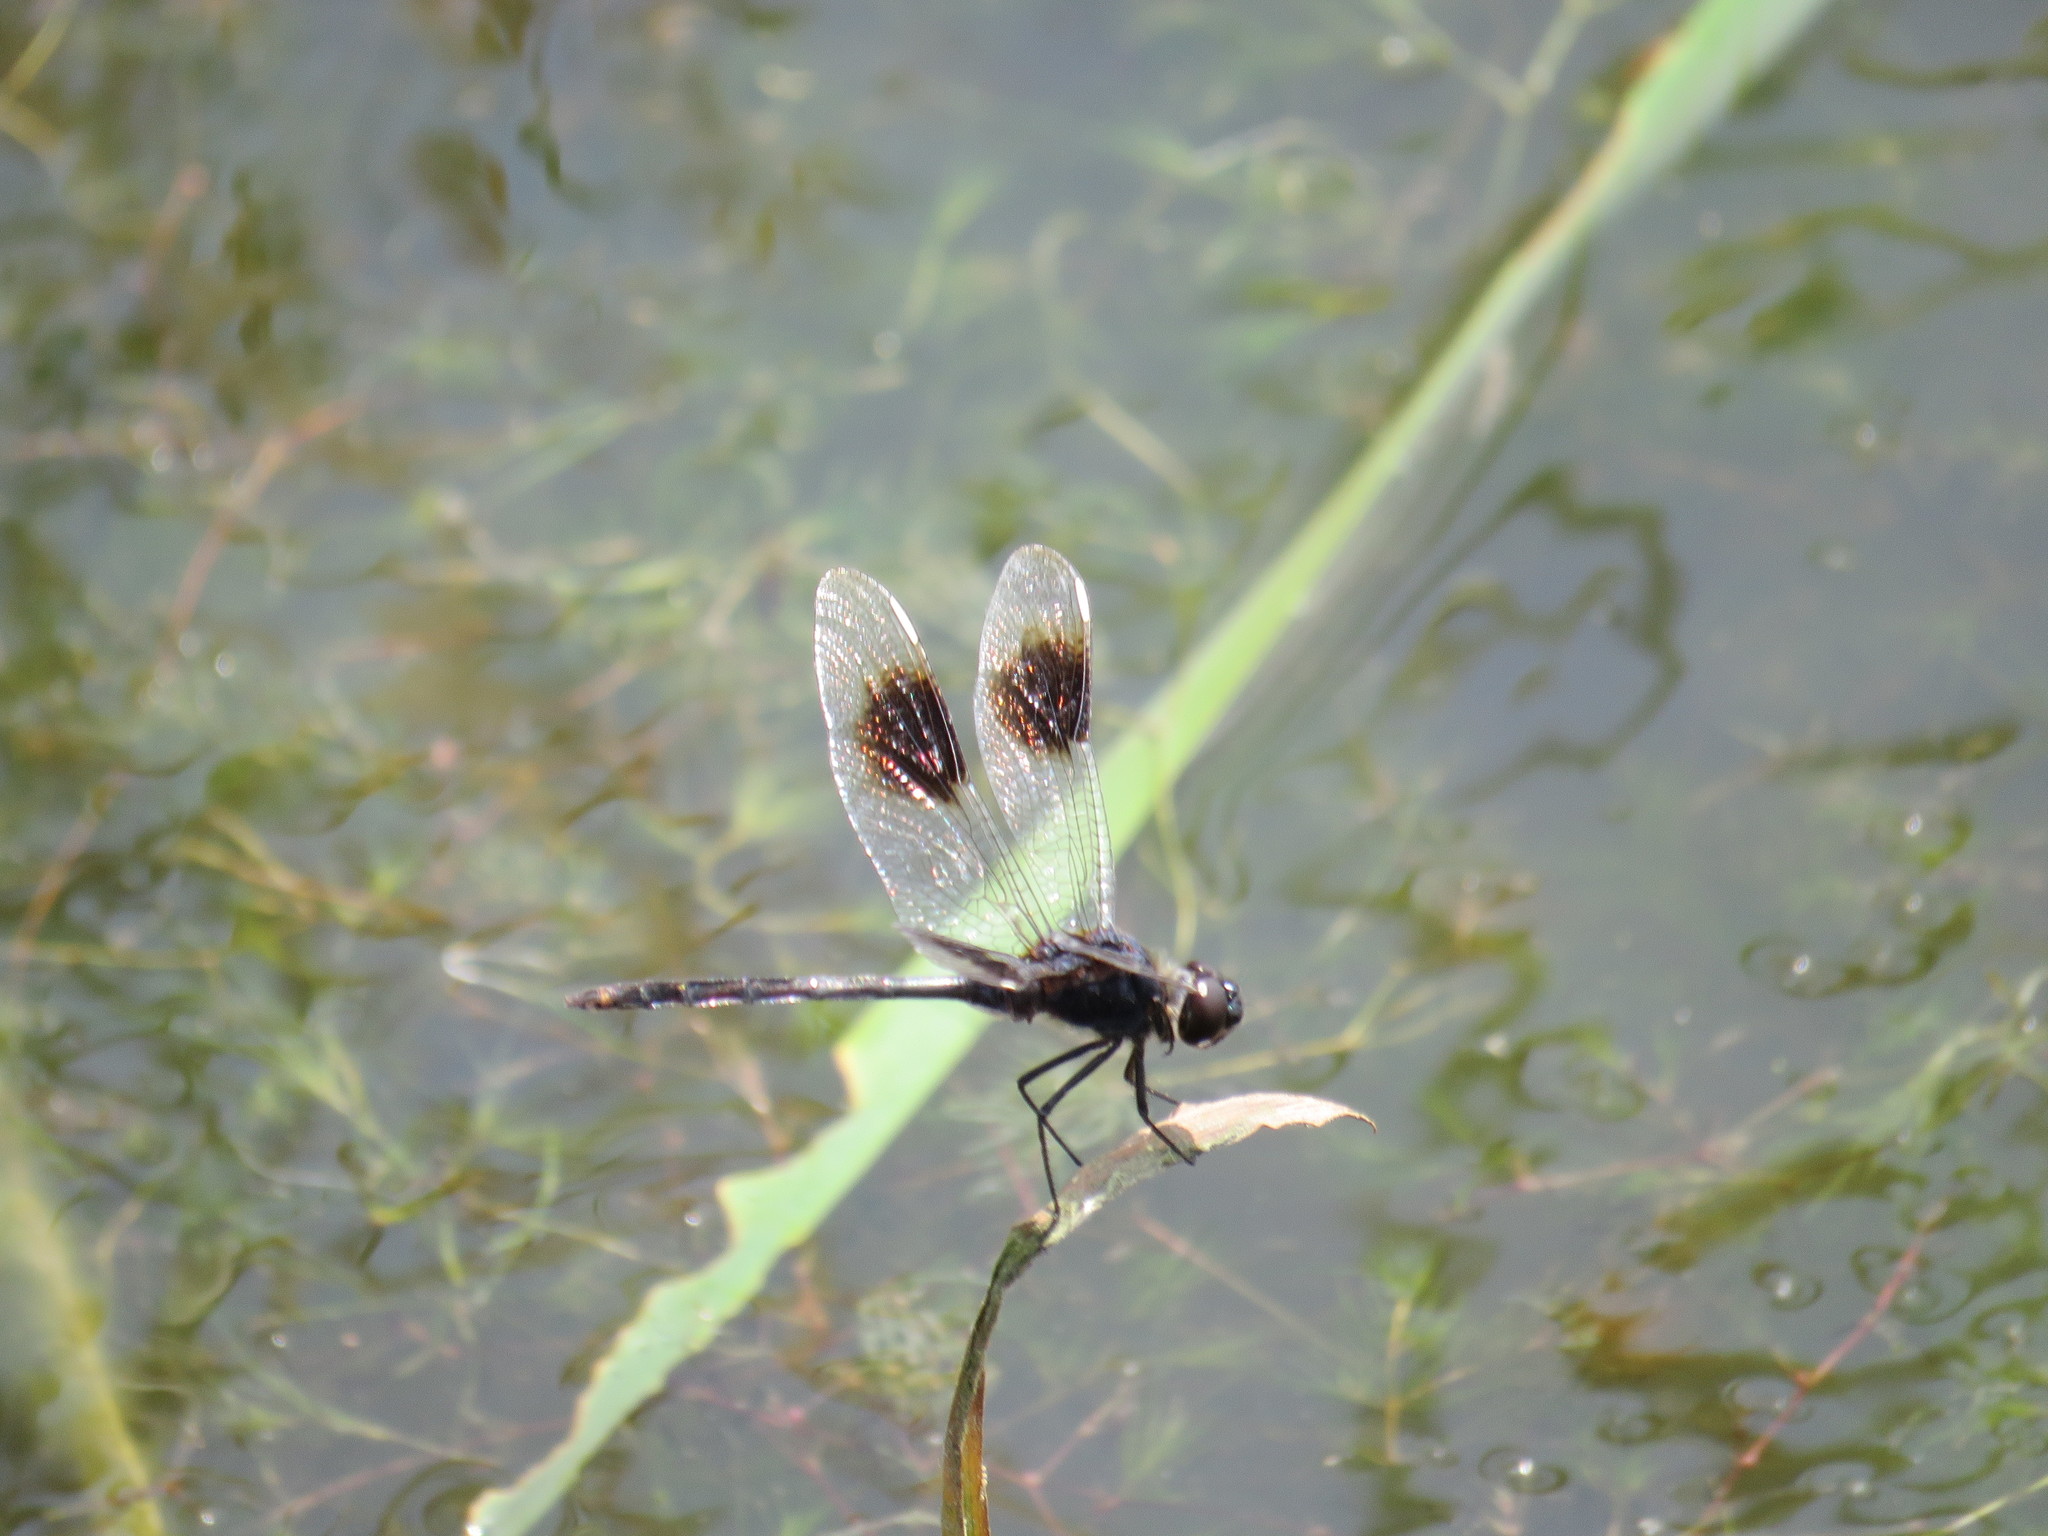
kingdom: Animalia
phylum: Arthropoda
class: Insecta
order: Odonata
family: Libellulidae
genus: Brachymesia
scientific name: Brachymesia gravida
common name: Four-spotted pennant
